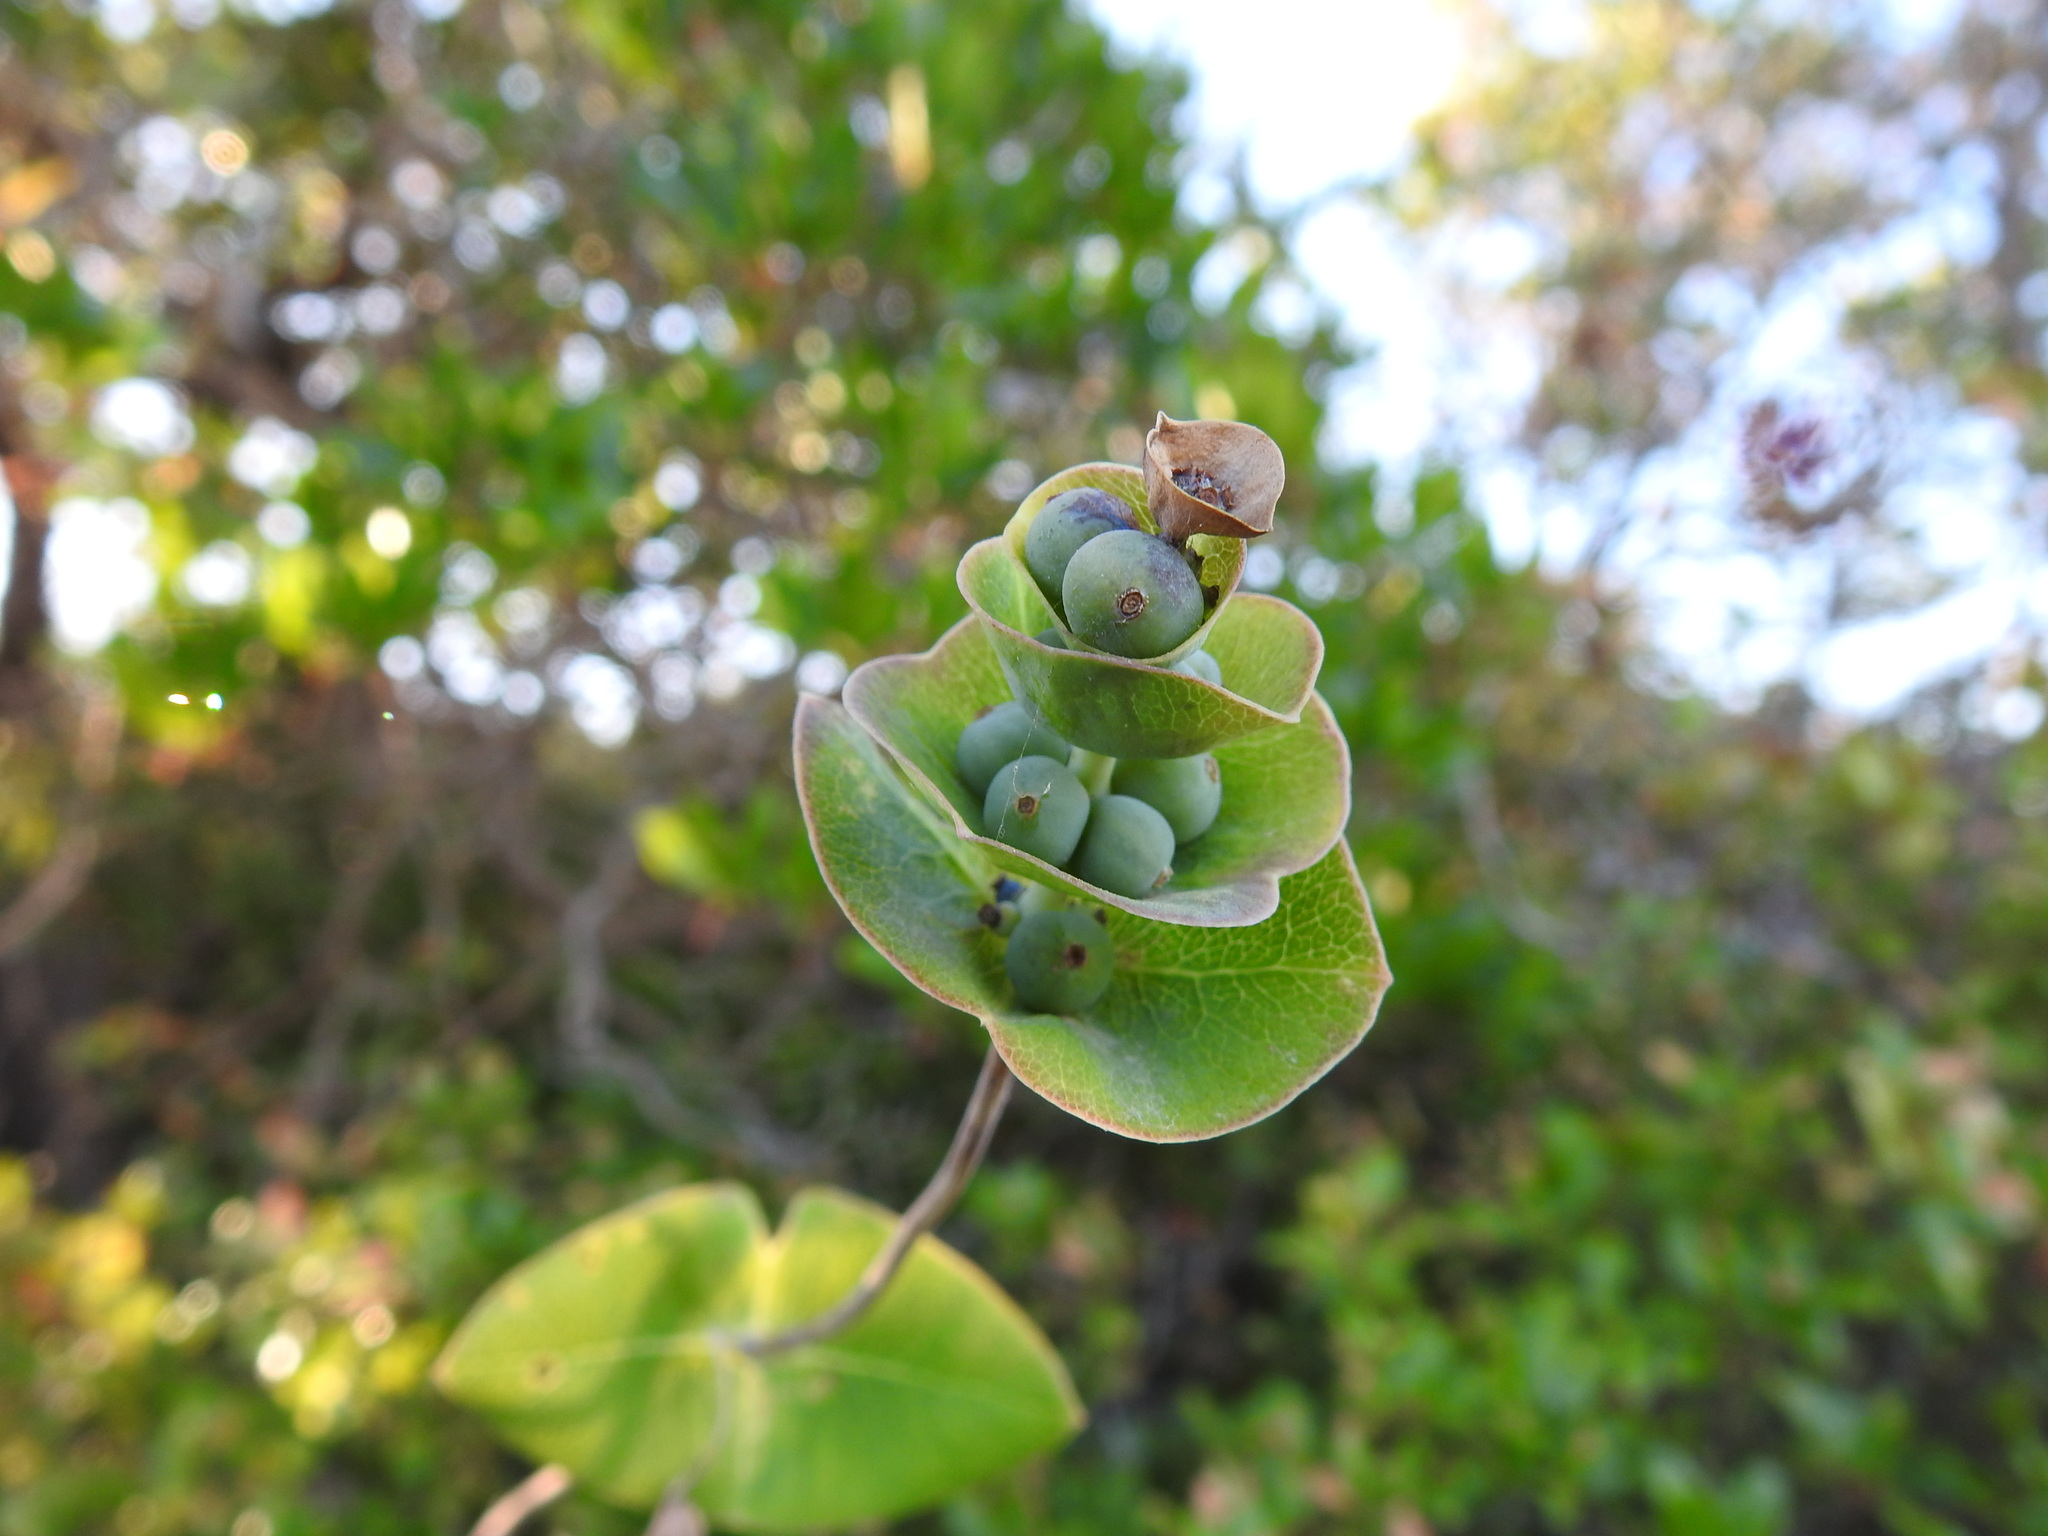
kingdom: Plantae
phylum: Tracheophyta
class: Magnoliopsida
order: Dipsacales
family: Caprifoliaceae
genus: Lonicera
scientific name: Lonicera implexa
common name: Minorca honeysuckle
